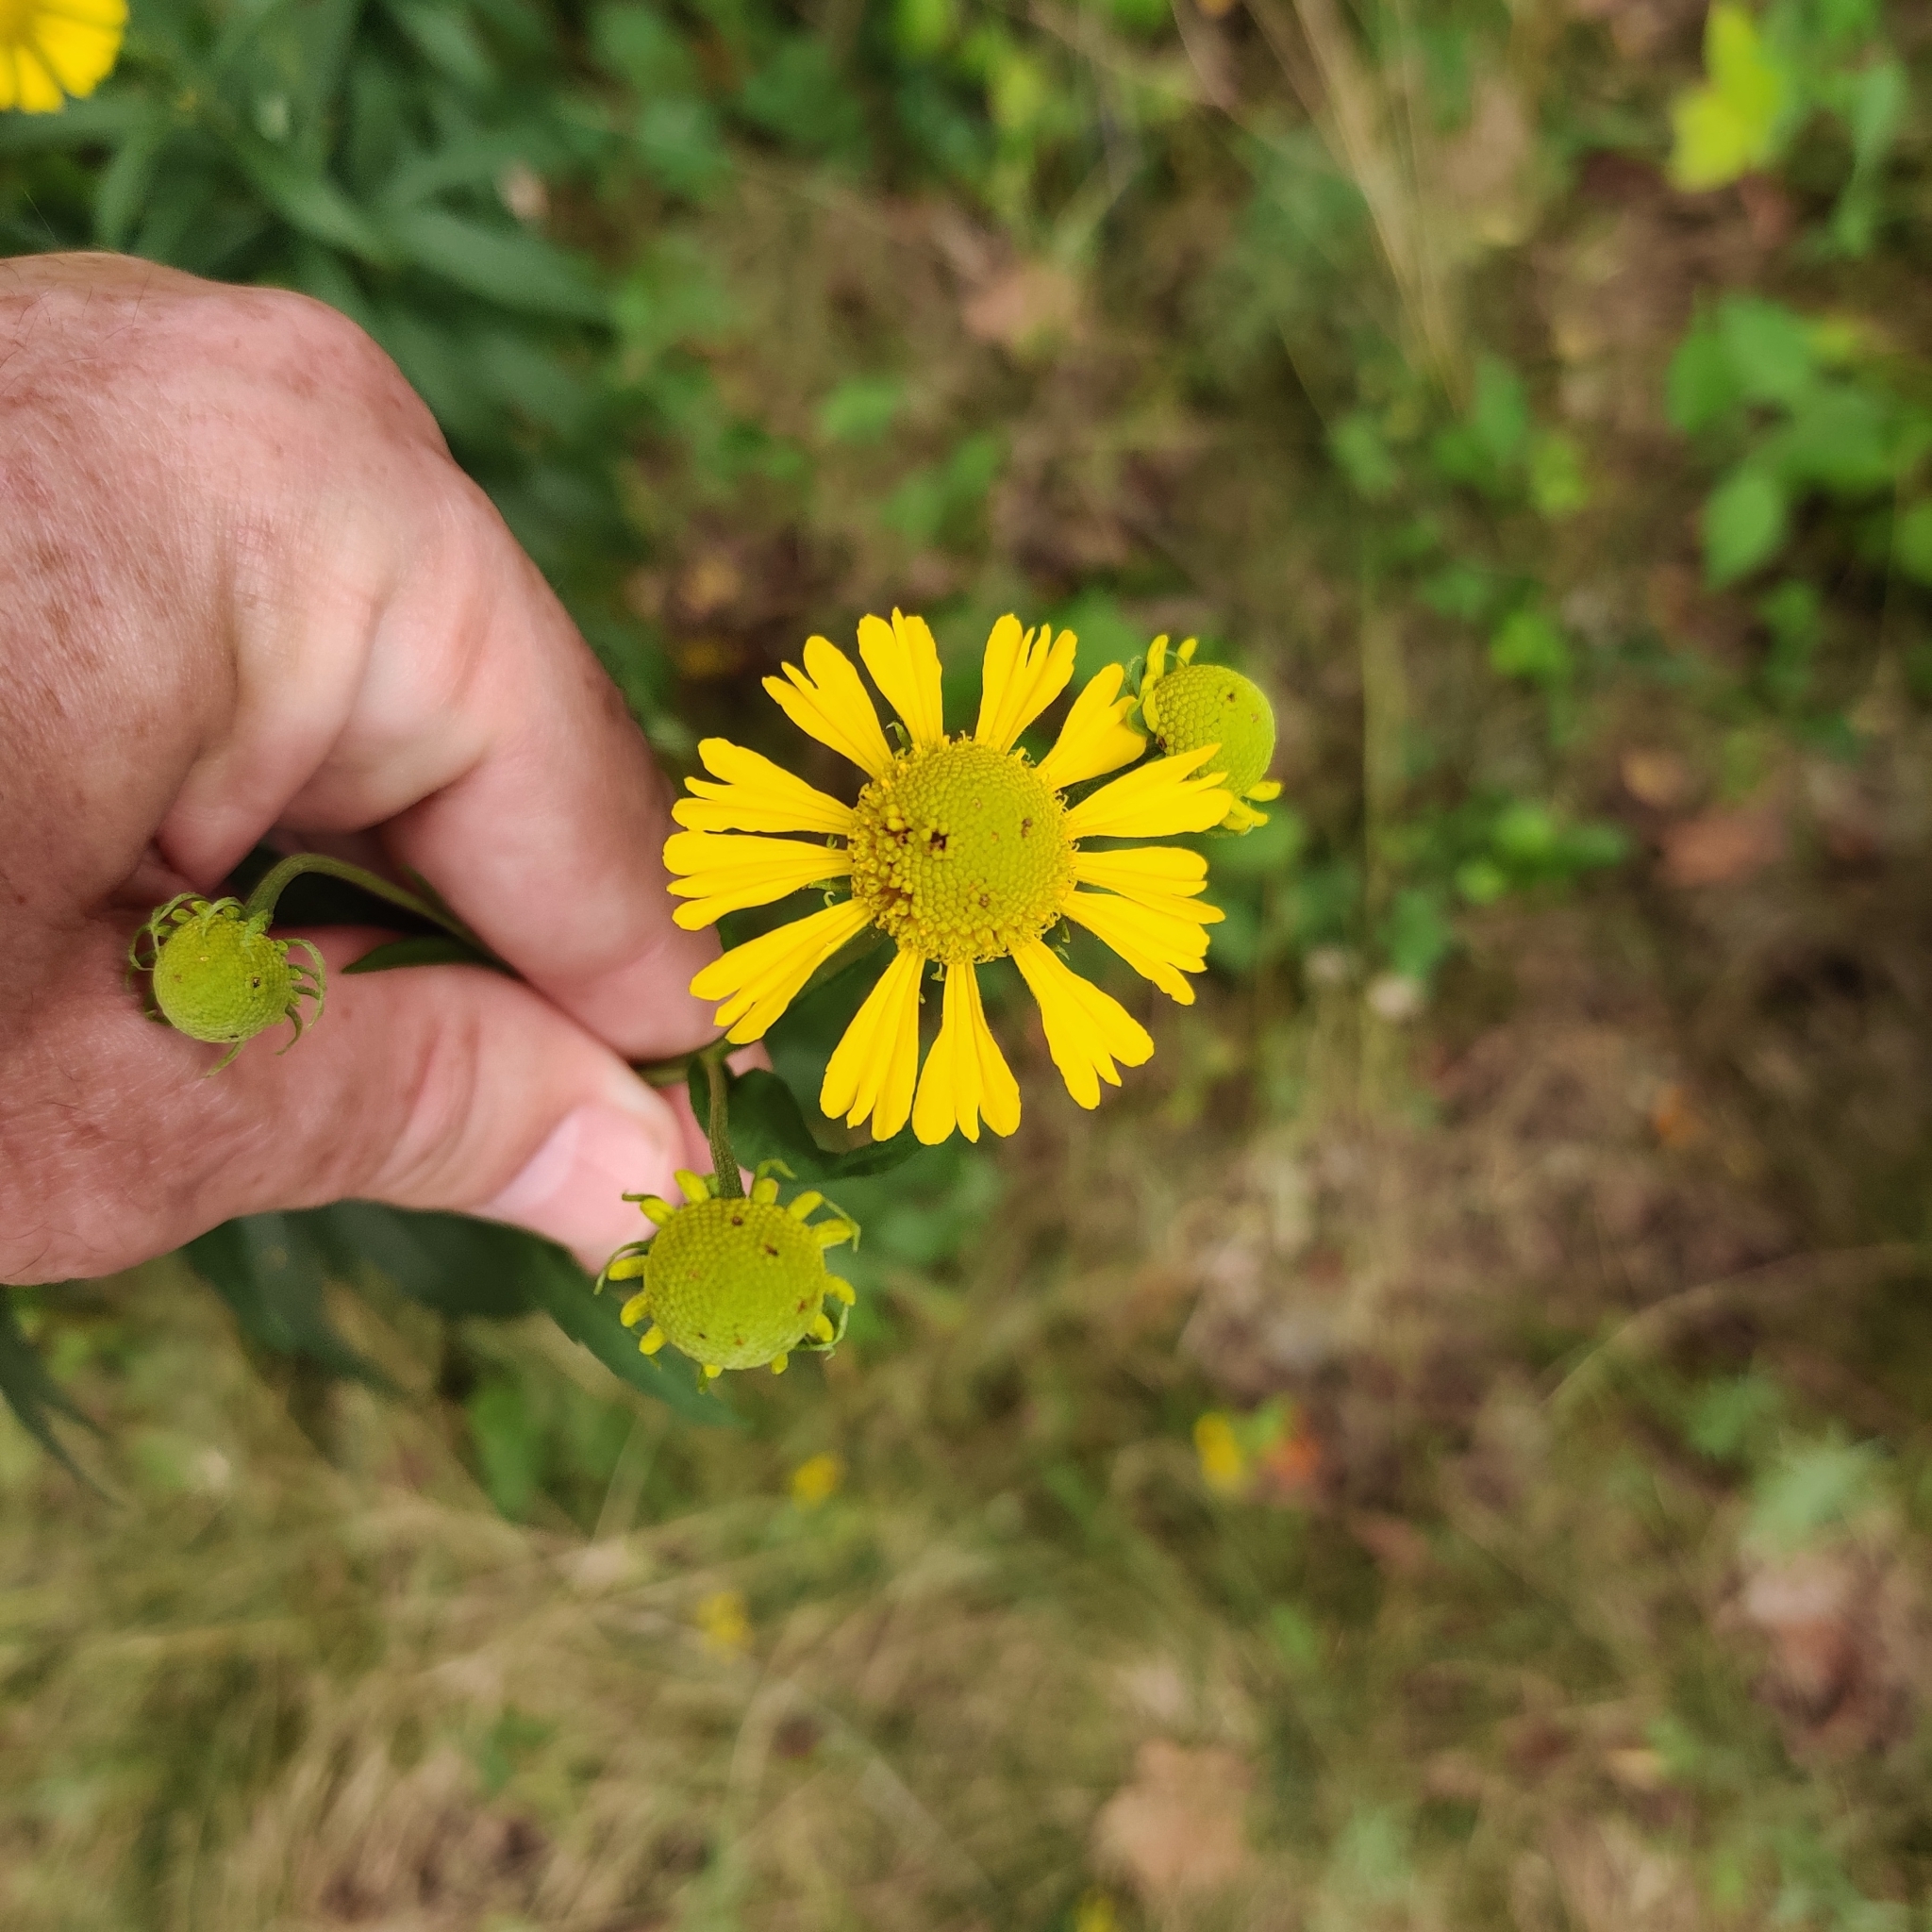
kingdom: Plantae
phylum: Tracheophyta
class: Magnoliopsida
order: Asterales
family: Asteraceae
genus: Helenium
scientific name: Helenium autumnale
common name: Sneezeweed
